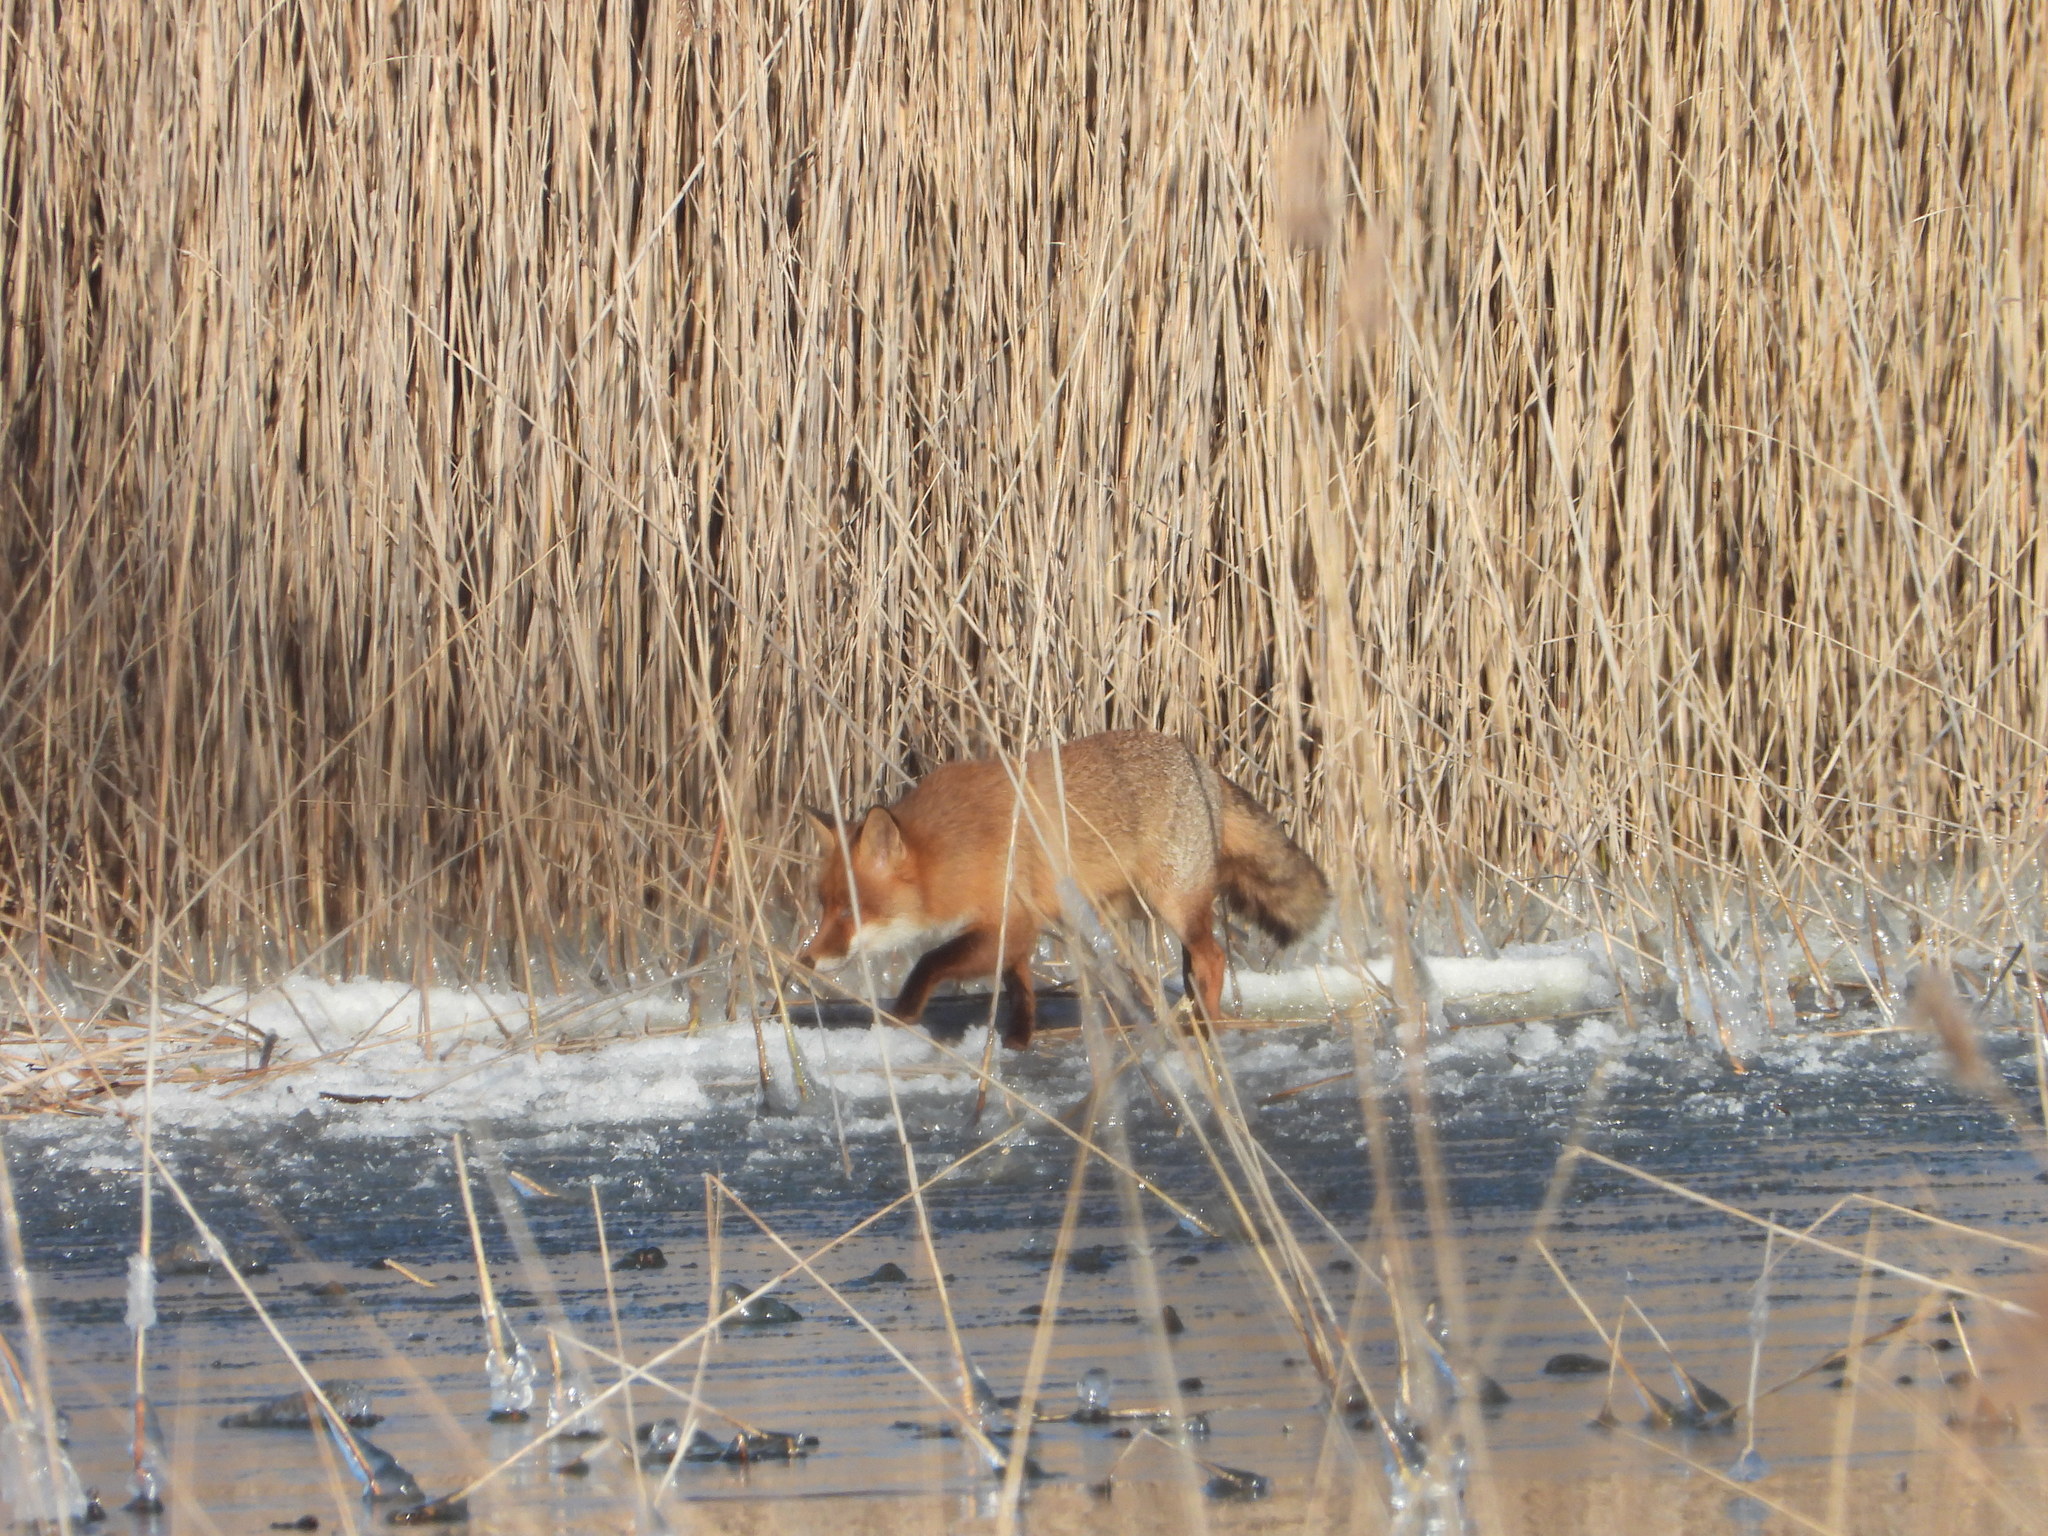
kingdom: Animalia
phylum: Chordata
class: Mammalia
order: Carnivora
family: Canidae
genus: Vulpes
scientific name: Vulpes vulpes
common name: Red fox
